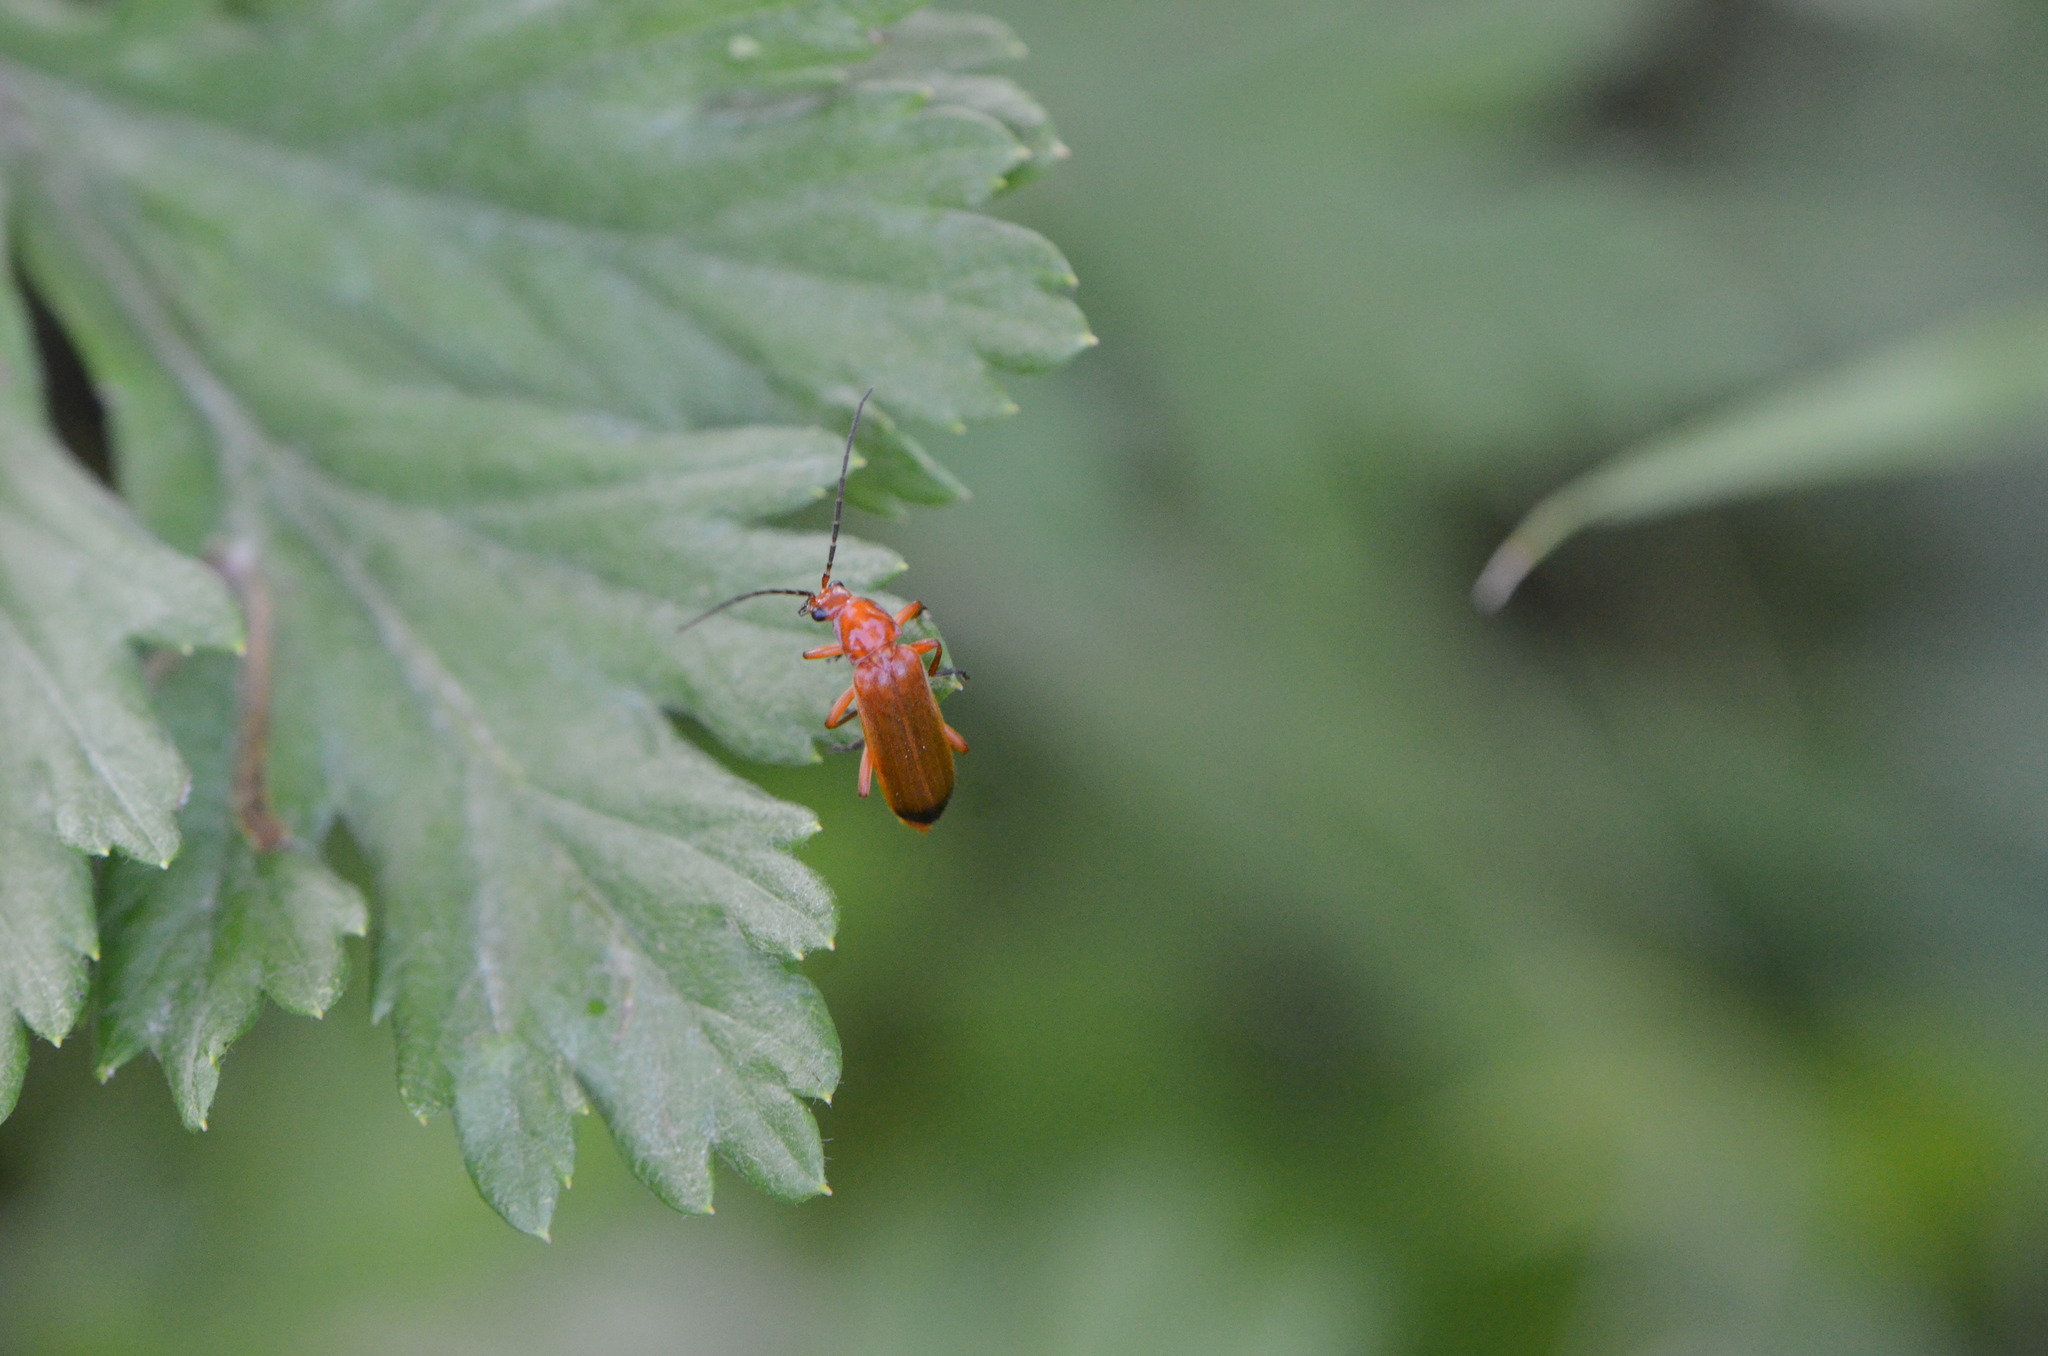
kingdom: Animalia
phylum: Arthropoda
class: Insecta
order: Coleoptera
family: Cantharidae
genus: Rhagonycha
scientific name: Rhagonycha fulva
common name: Common red soldier beetle
